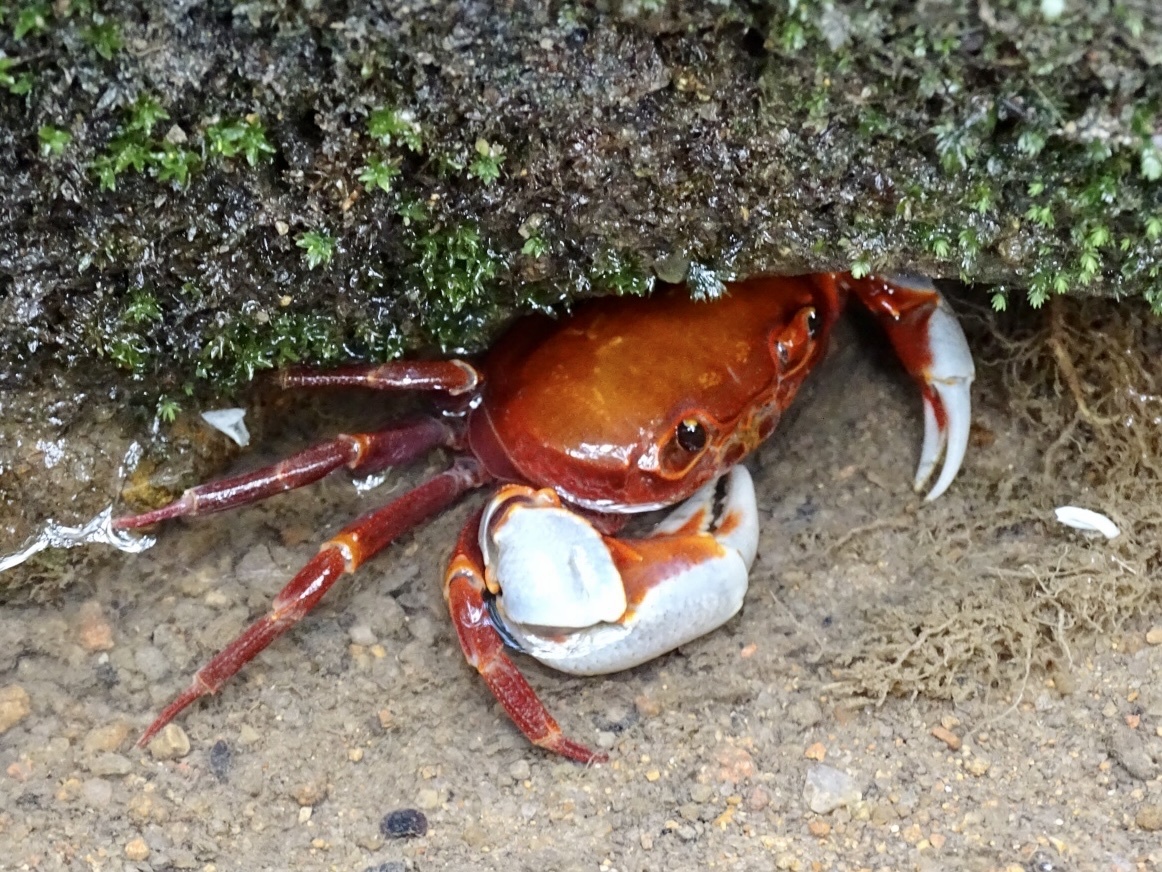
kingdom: Animalia
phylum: Arthropoda
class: Malacostraca
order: Decapoda
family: Potamidae
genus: Nanhaipotamon
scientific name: Nanhaipotamon hongkongense
